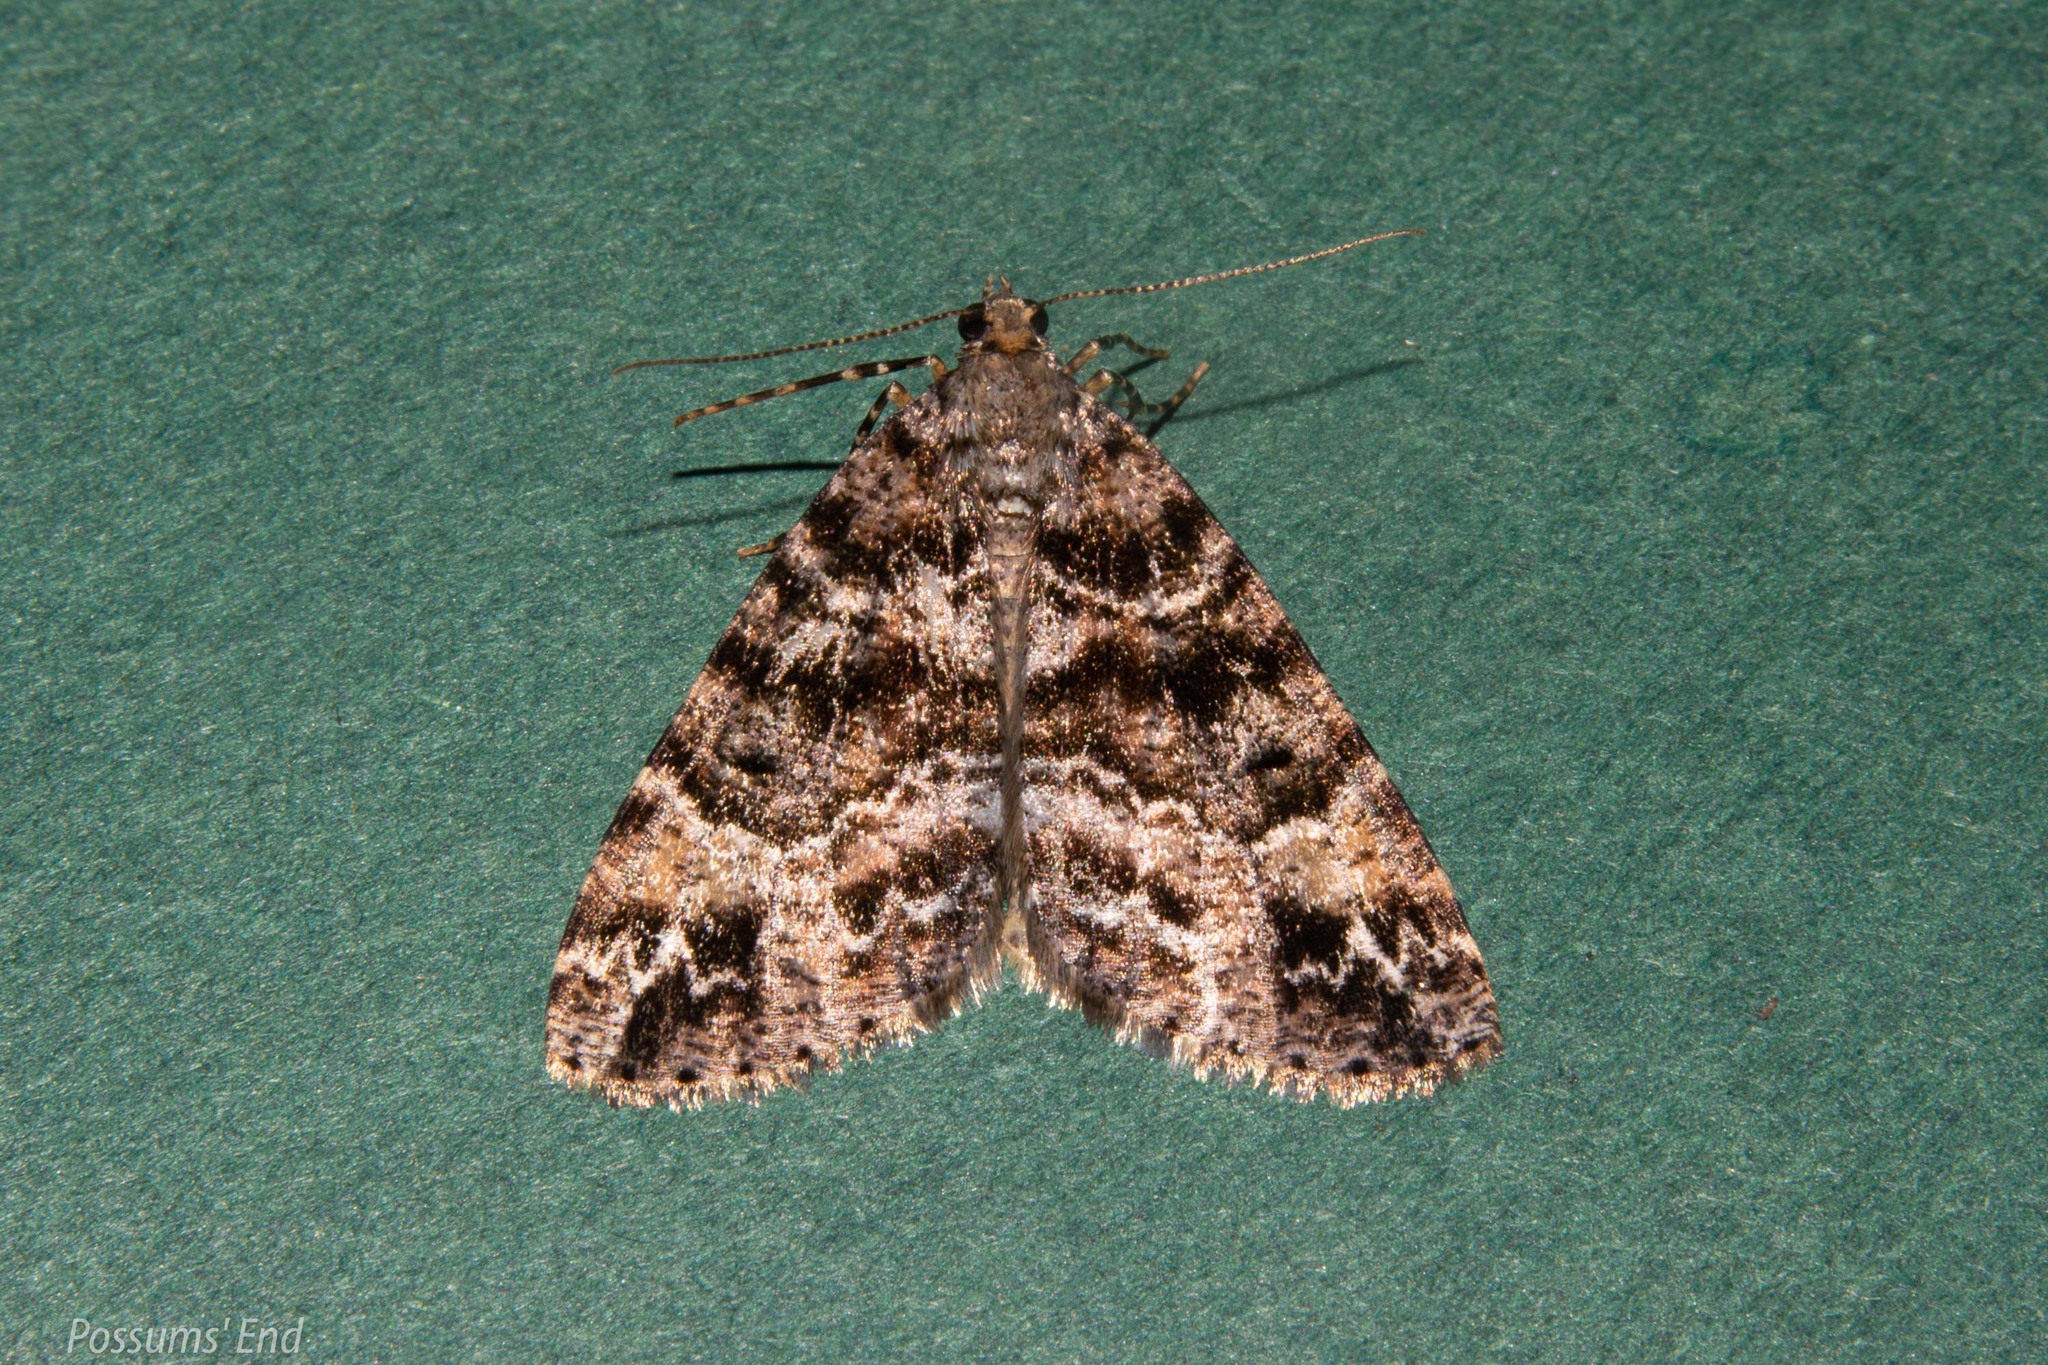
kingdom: Animalia
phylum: Arthropoda
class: Insecta
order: Lepidoptera
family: Geometridae
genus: Pseudocoremia
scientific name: Pseudocoremia productata
